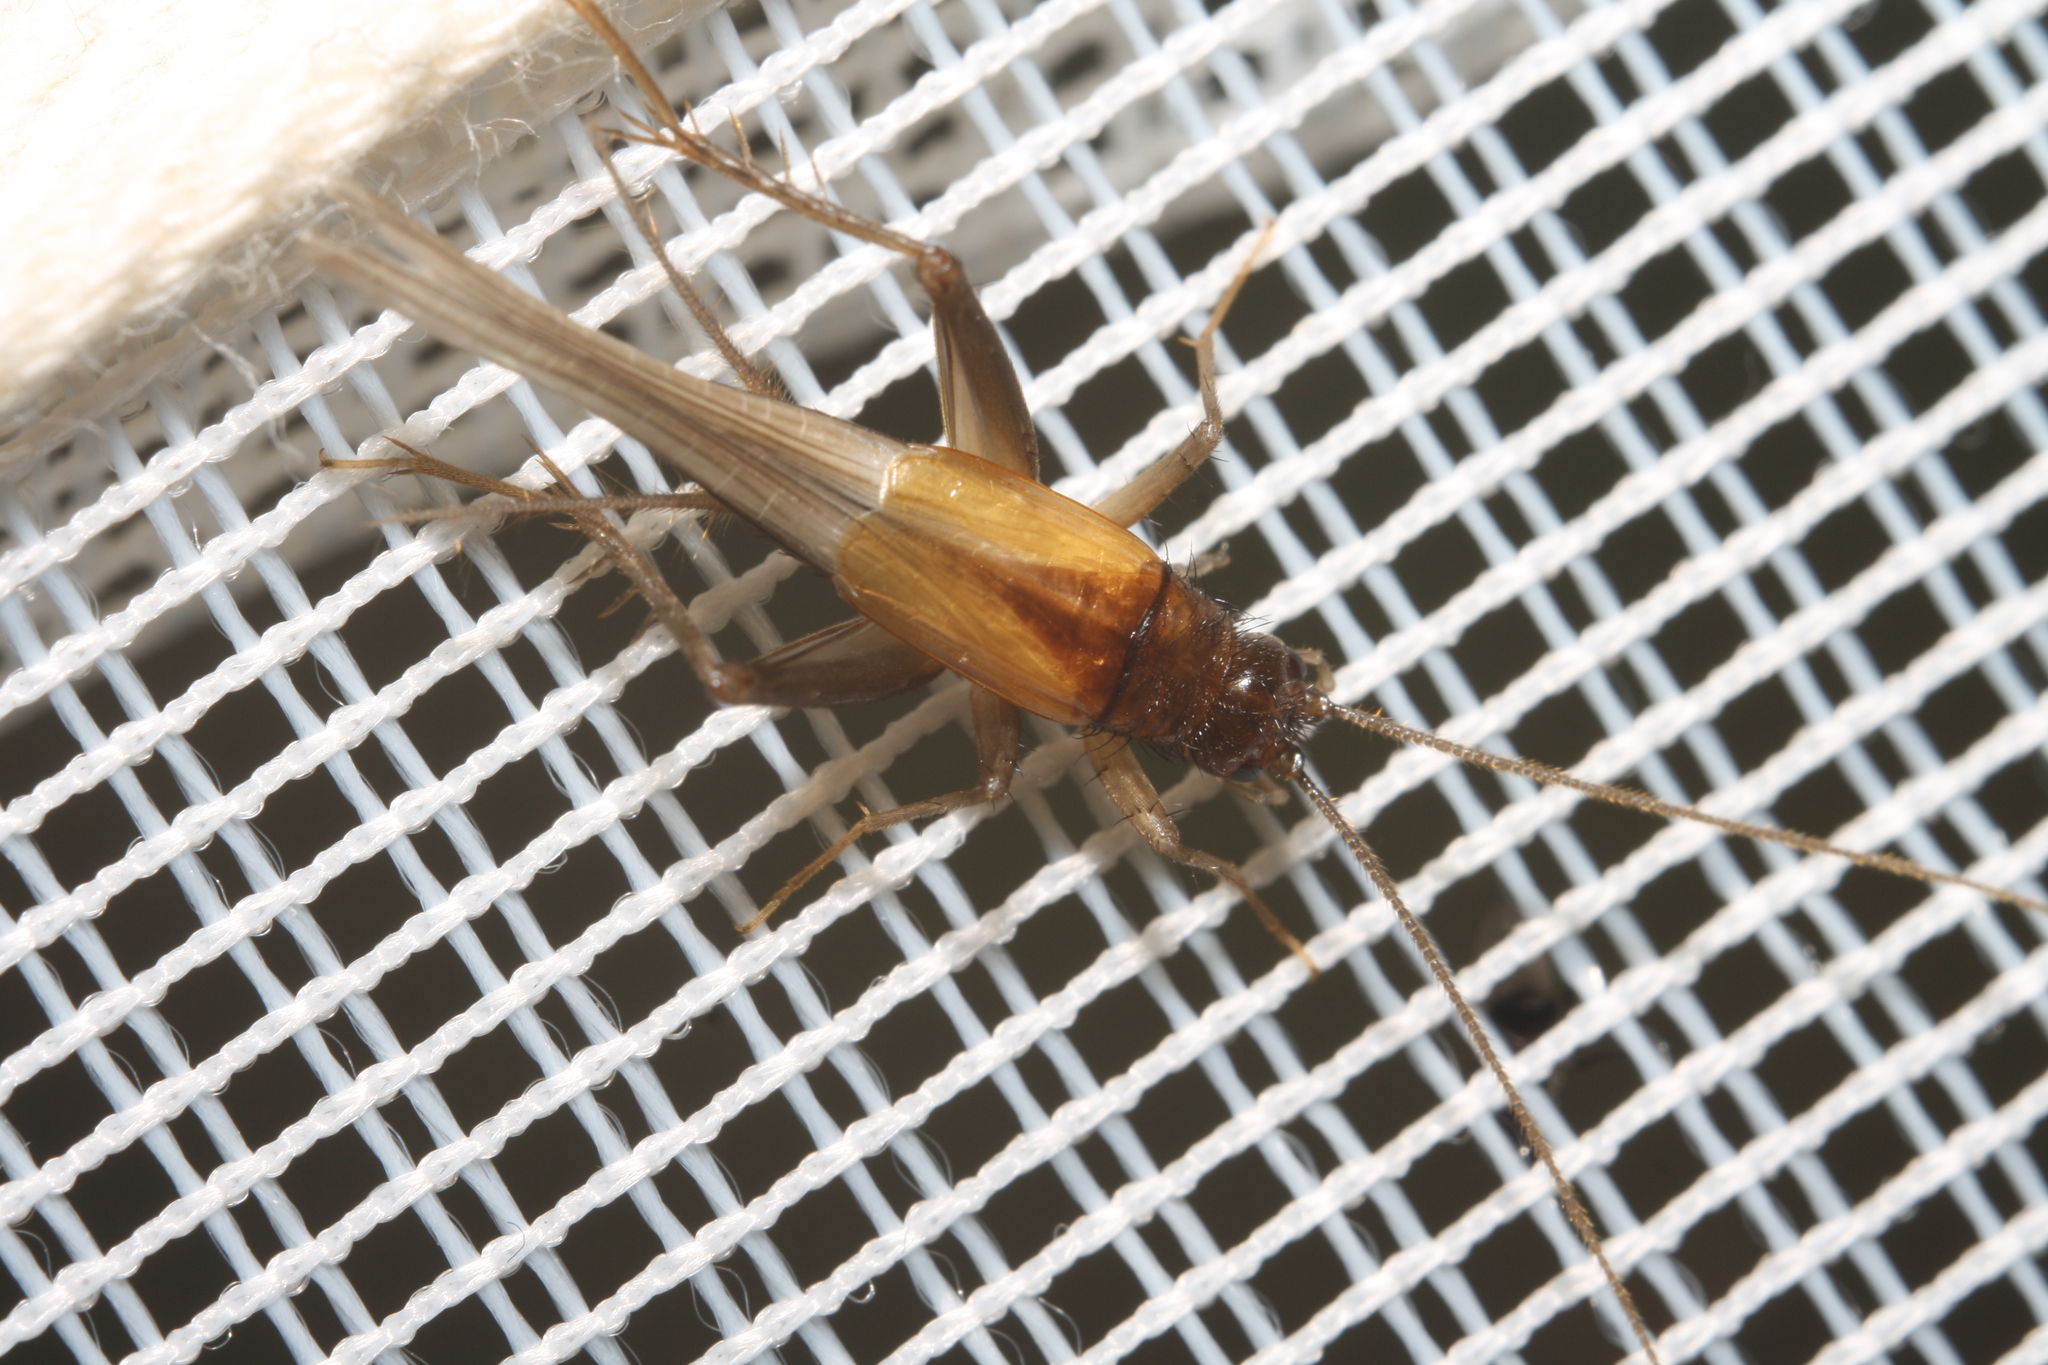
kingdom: Animalia
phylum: Arthropoda
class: Insecta
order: Orthoptera
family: Trigonidiidae
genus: Stenonemobius
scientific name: Stenonemobius bicolor
